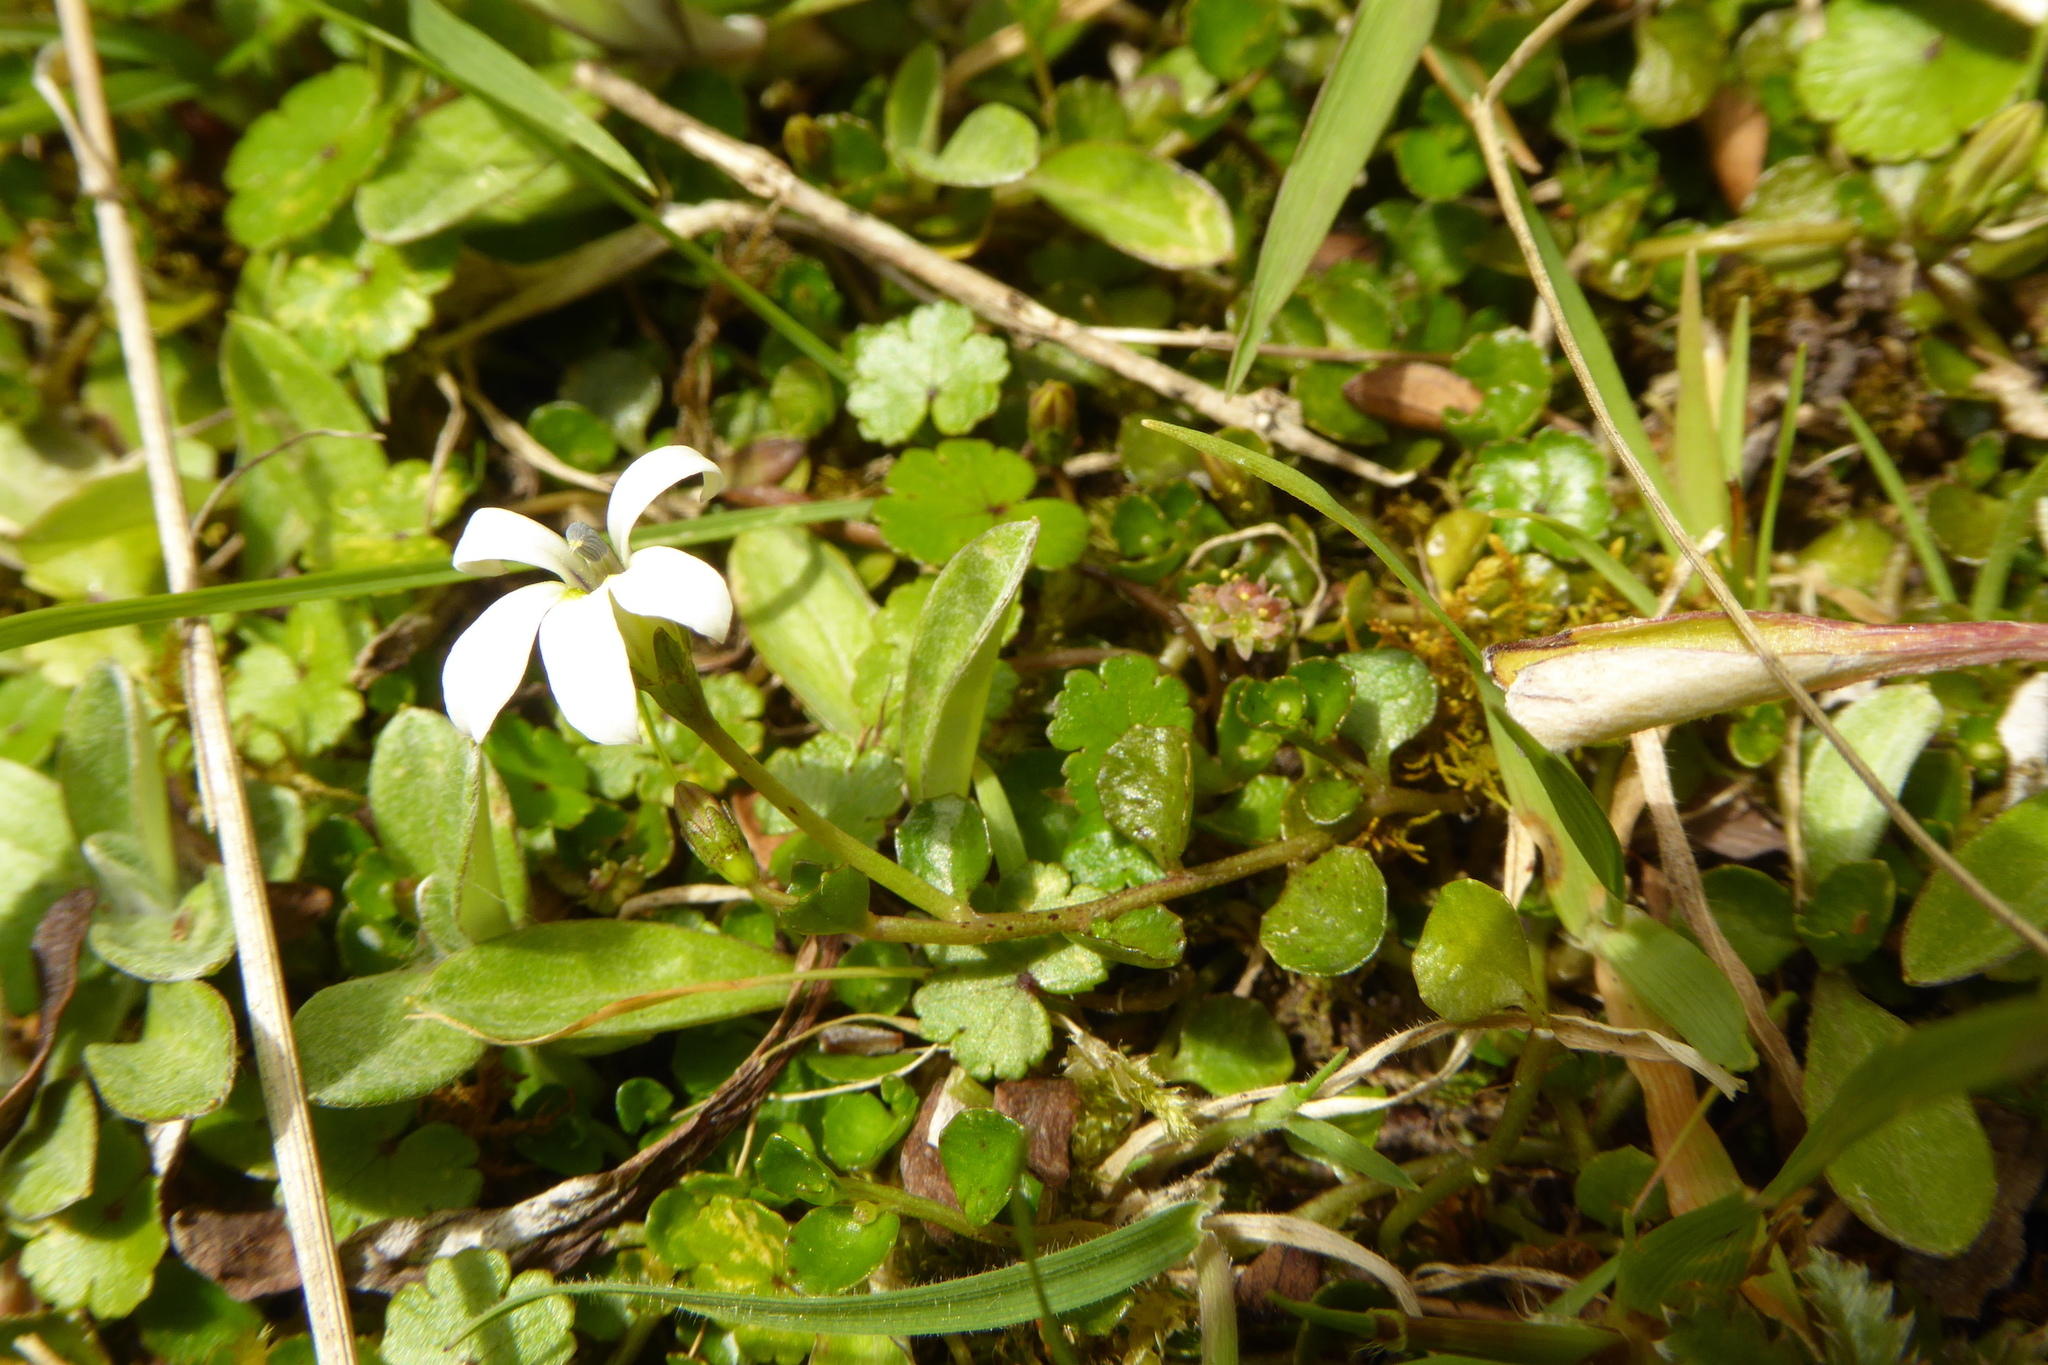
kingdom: Plantae
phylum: Tracheophyta
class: Magnoliopsida
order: Asterales
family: Campanulaceae
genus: Lobelia
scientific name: Lobelia angulata
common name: Lawn lobelia
